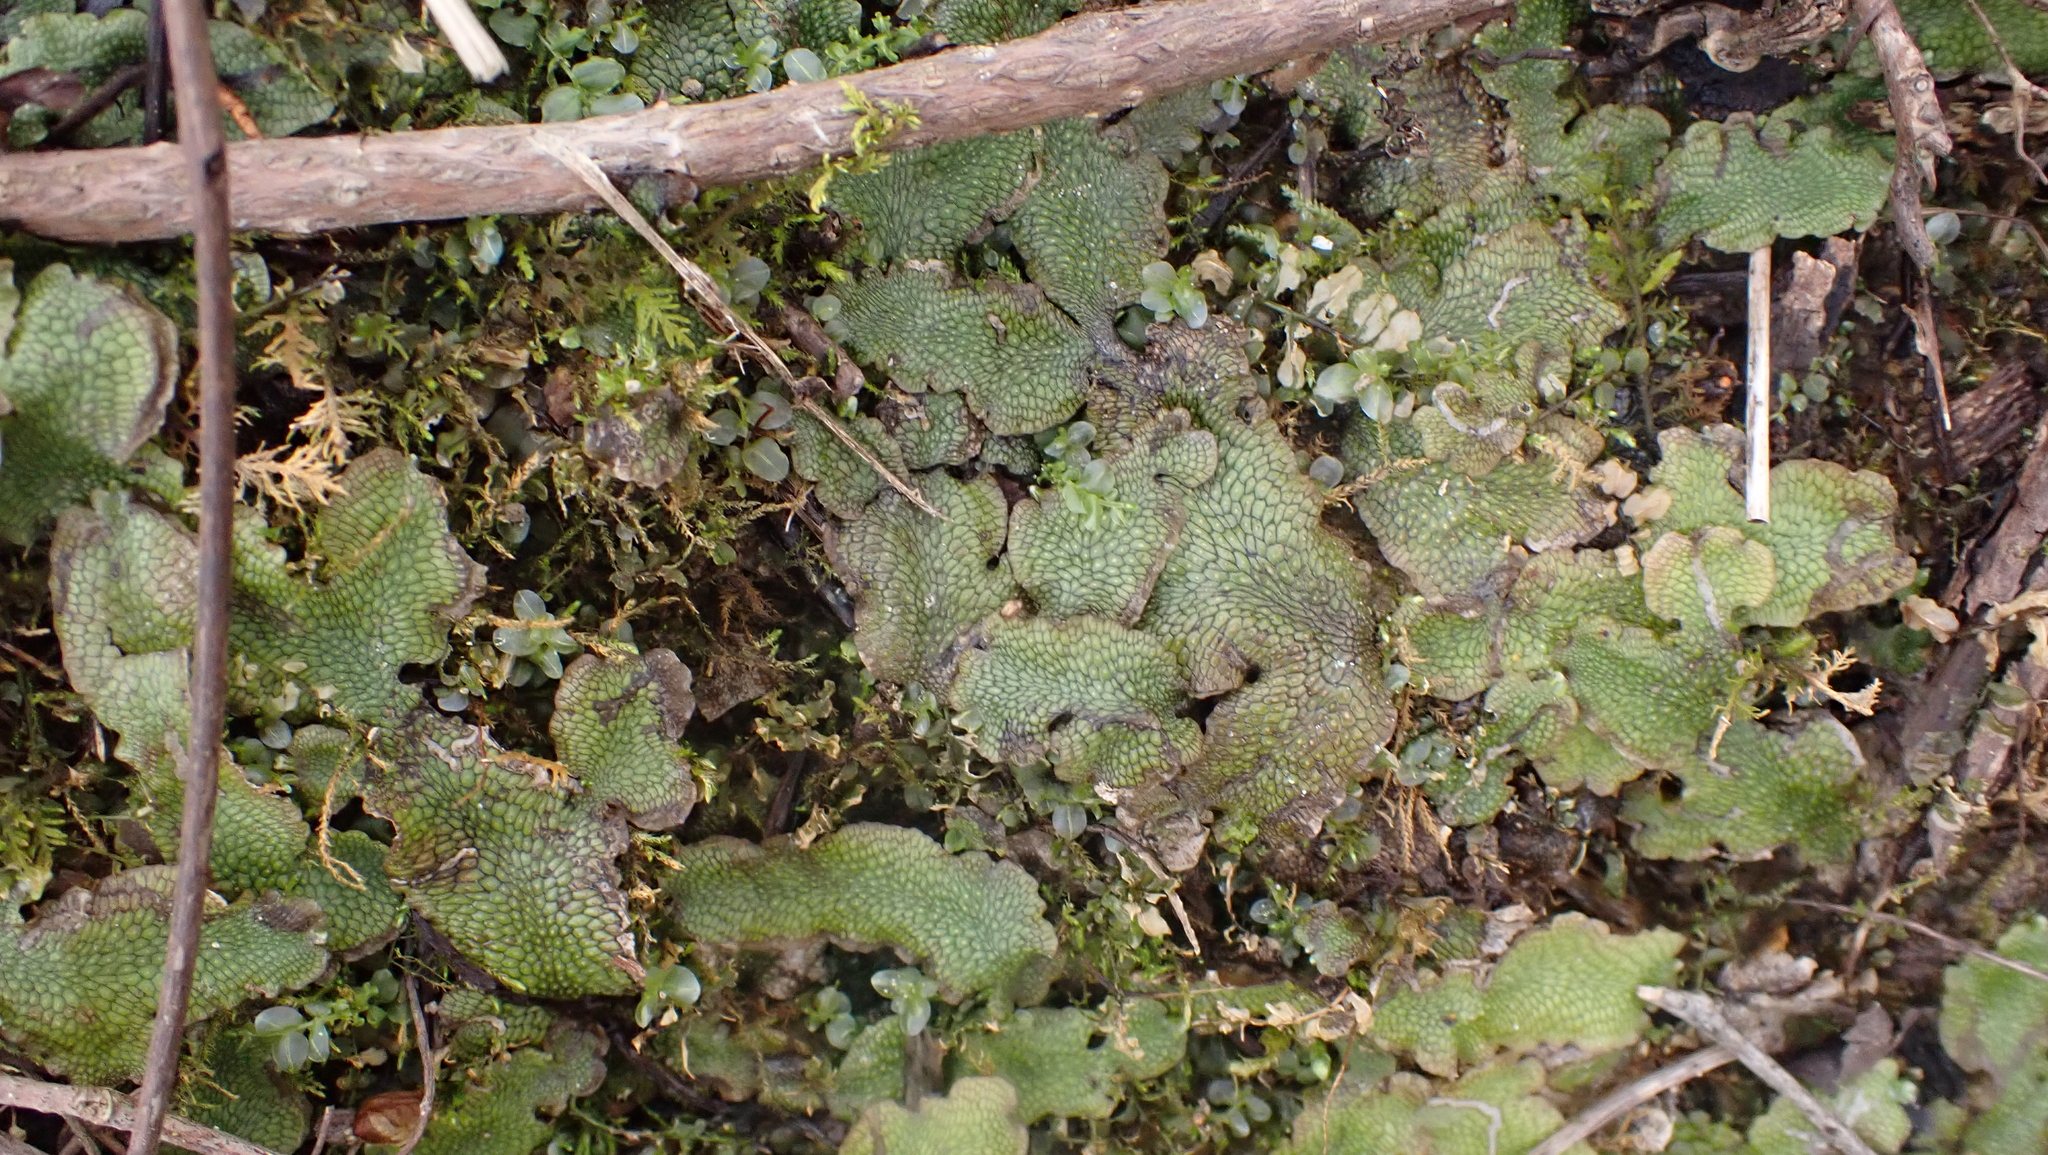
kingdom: Plantae
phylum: Marchantiophyta
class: Marchantiopsida
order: Marchantiales
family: Conocephalaceae
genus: Conocephalum
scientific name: Conocephalum salebrosum
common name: Cat-tongue liverwort
